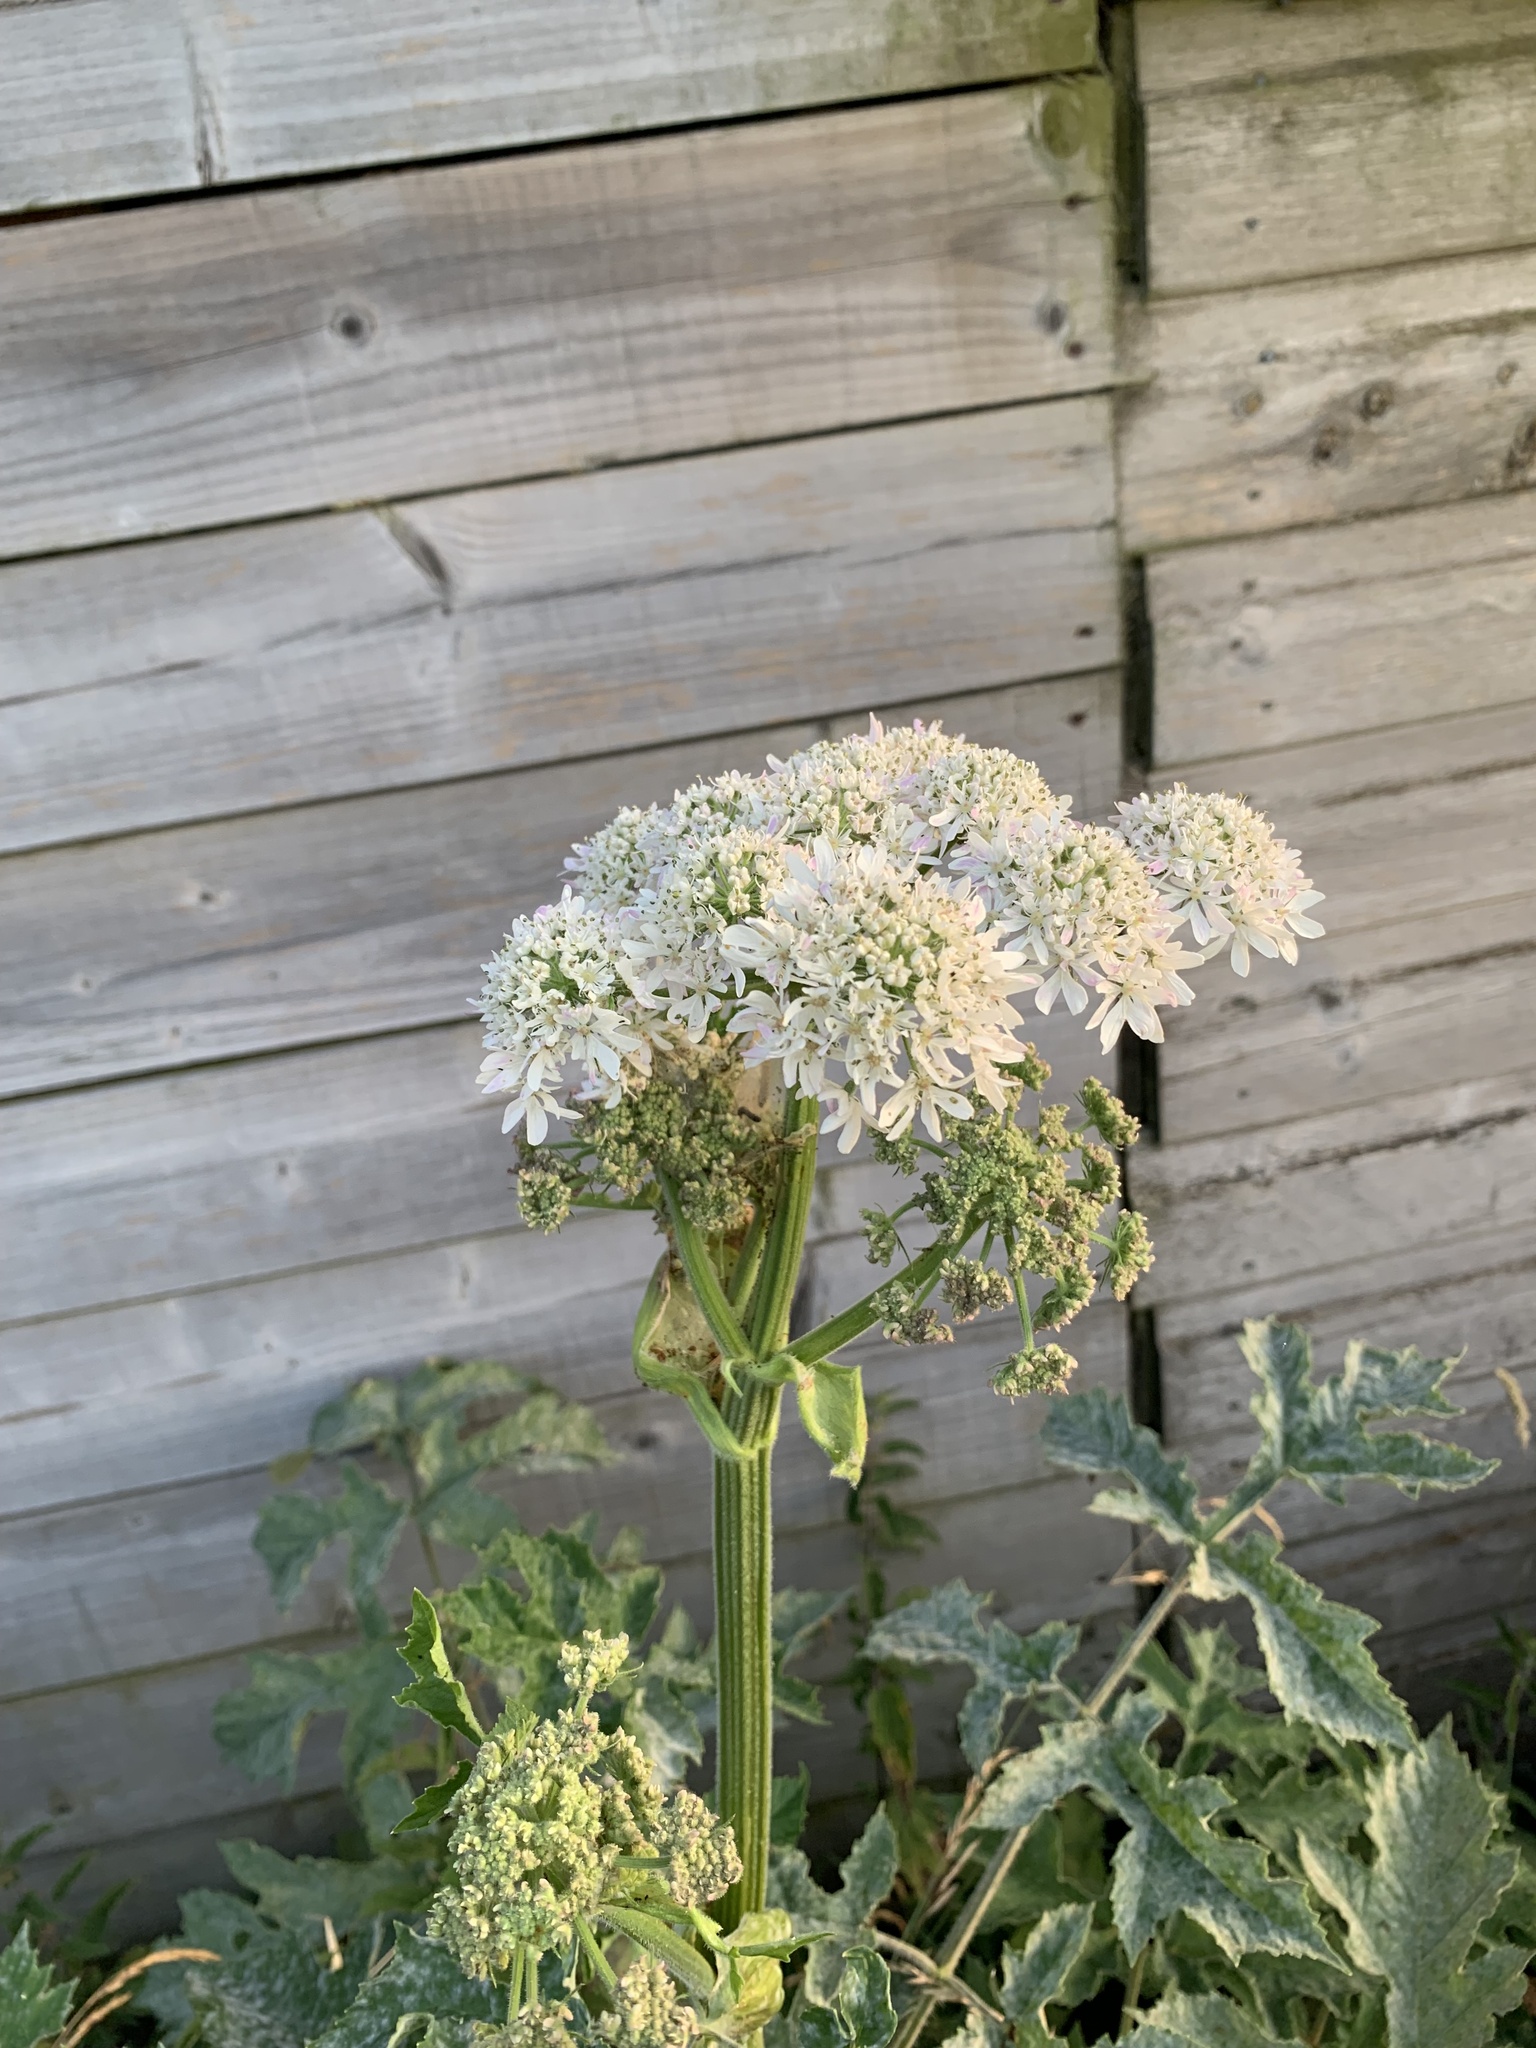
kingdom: Plantae
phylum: Tracheophyta
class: Magnoliopsida
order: Apiales
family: Apiaceae
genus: Heracleum
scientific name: Heracleum sphondylium
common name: Hogweed
